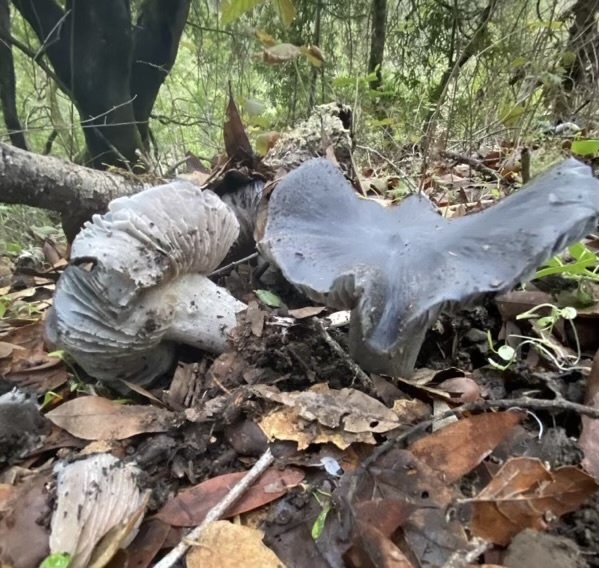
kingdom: Fungi
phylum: Basidiomycota
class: Agaricomycetes
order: Agaricales
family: Entolomataceae
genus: Entoloma
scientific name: Entoloma medianox
